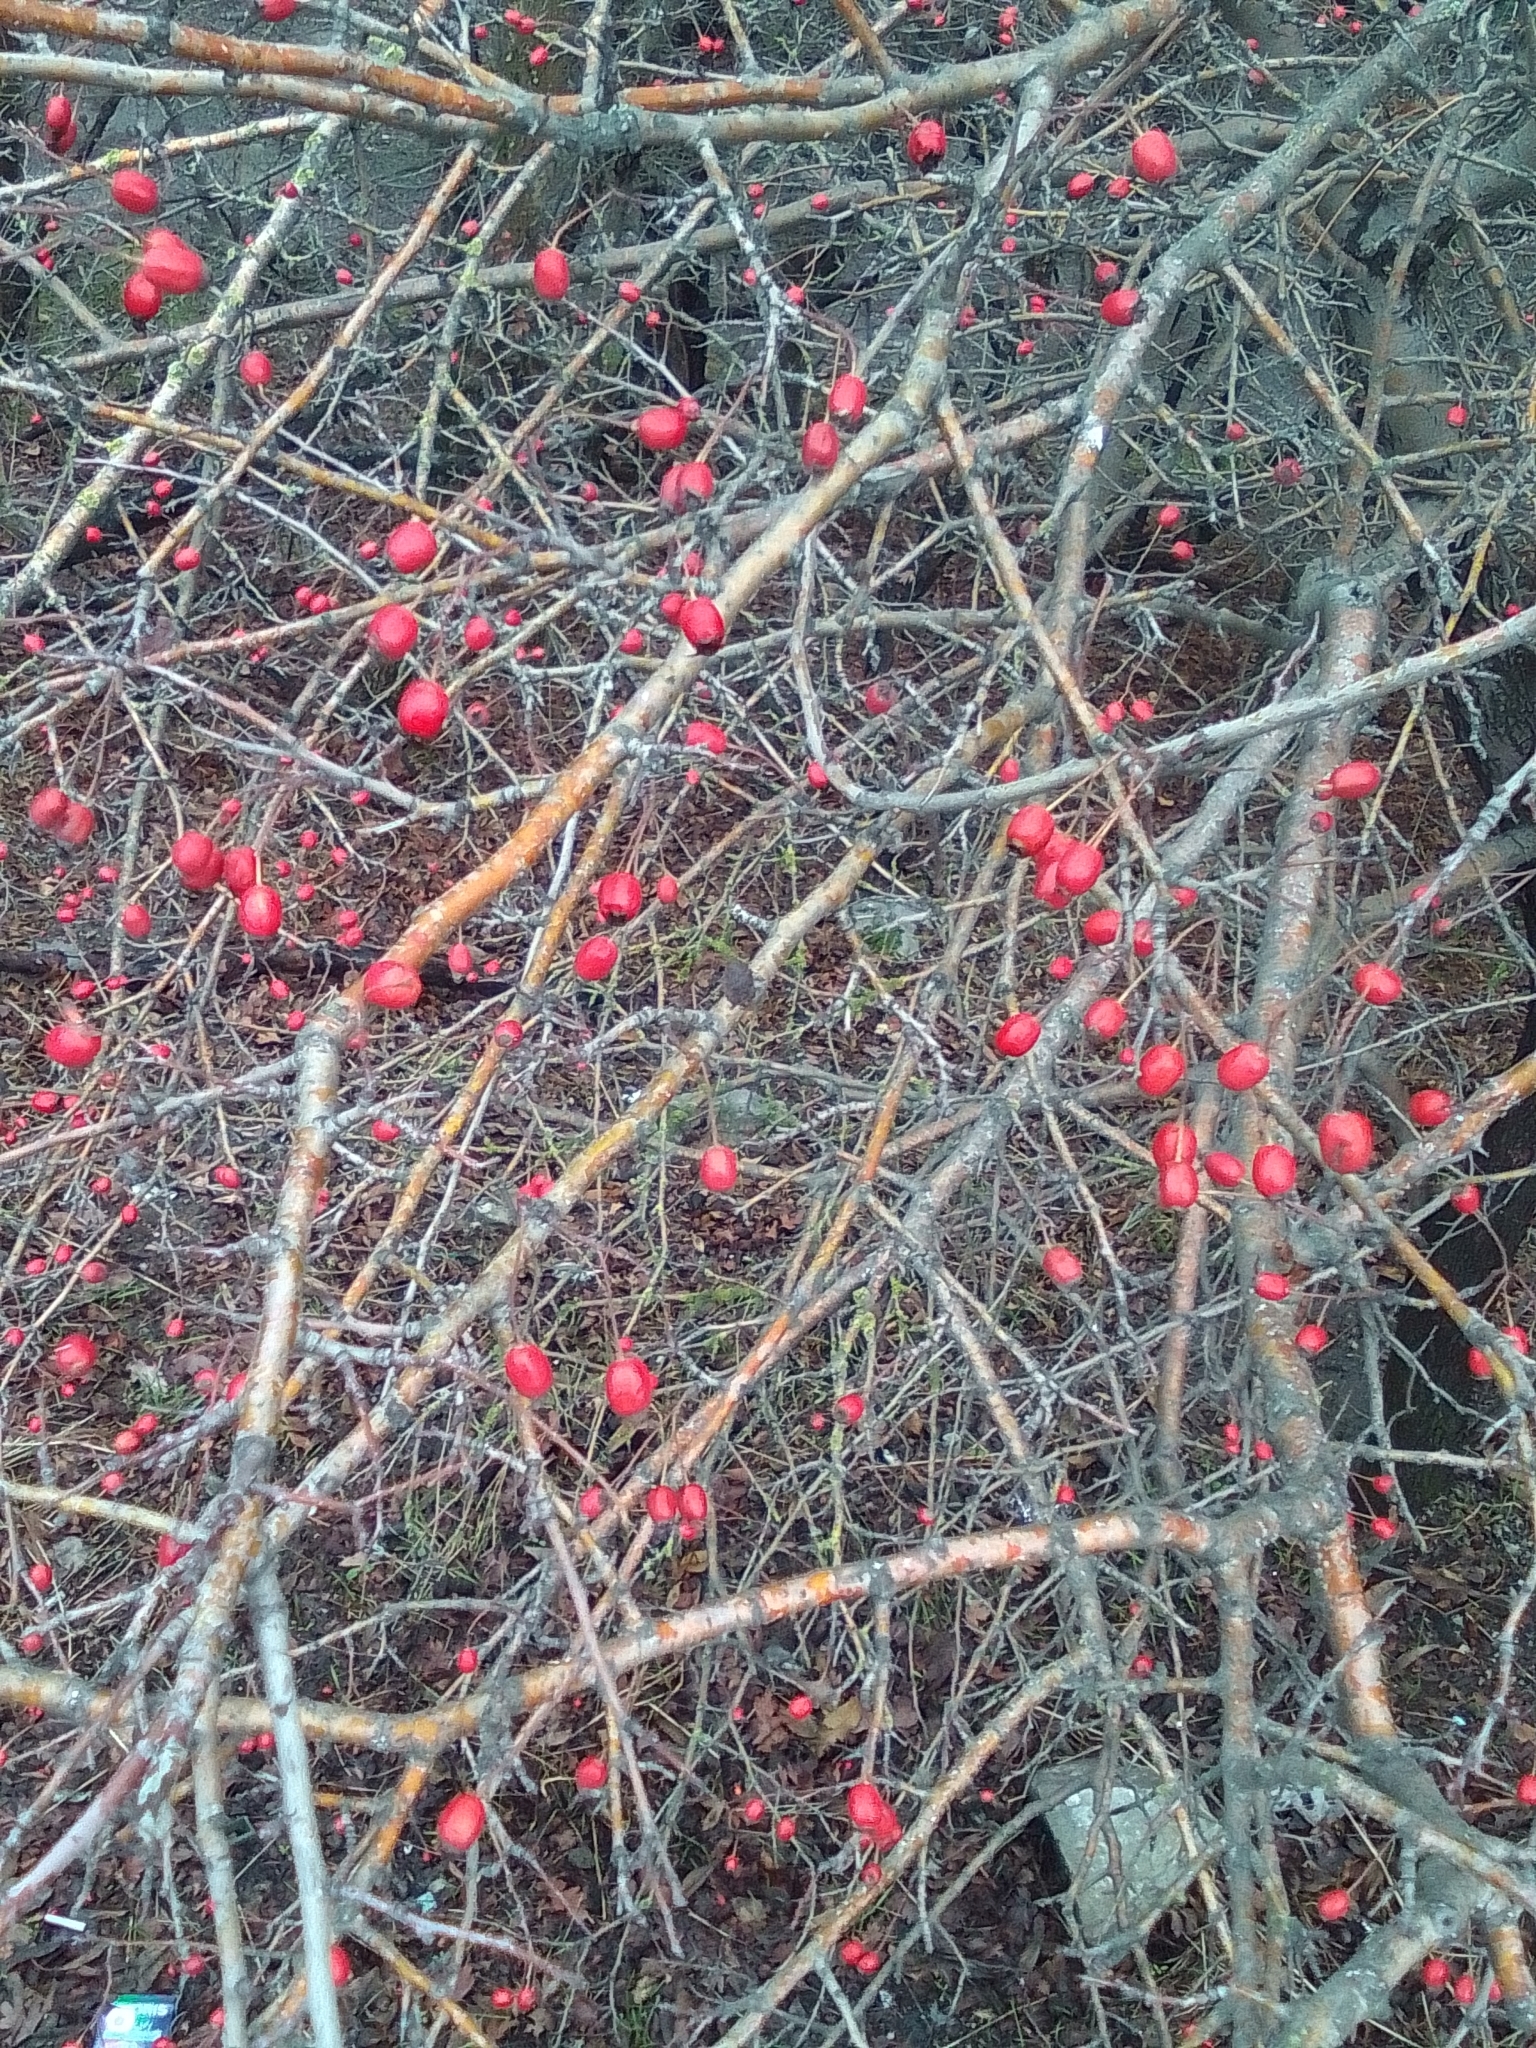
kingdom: Plantae
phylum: Tracheophyta
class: Magnoliopsida
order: Rosales
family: Rosaceae
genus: Crataegus
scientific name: Crataegus monogyna
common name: Hawthorn
